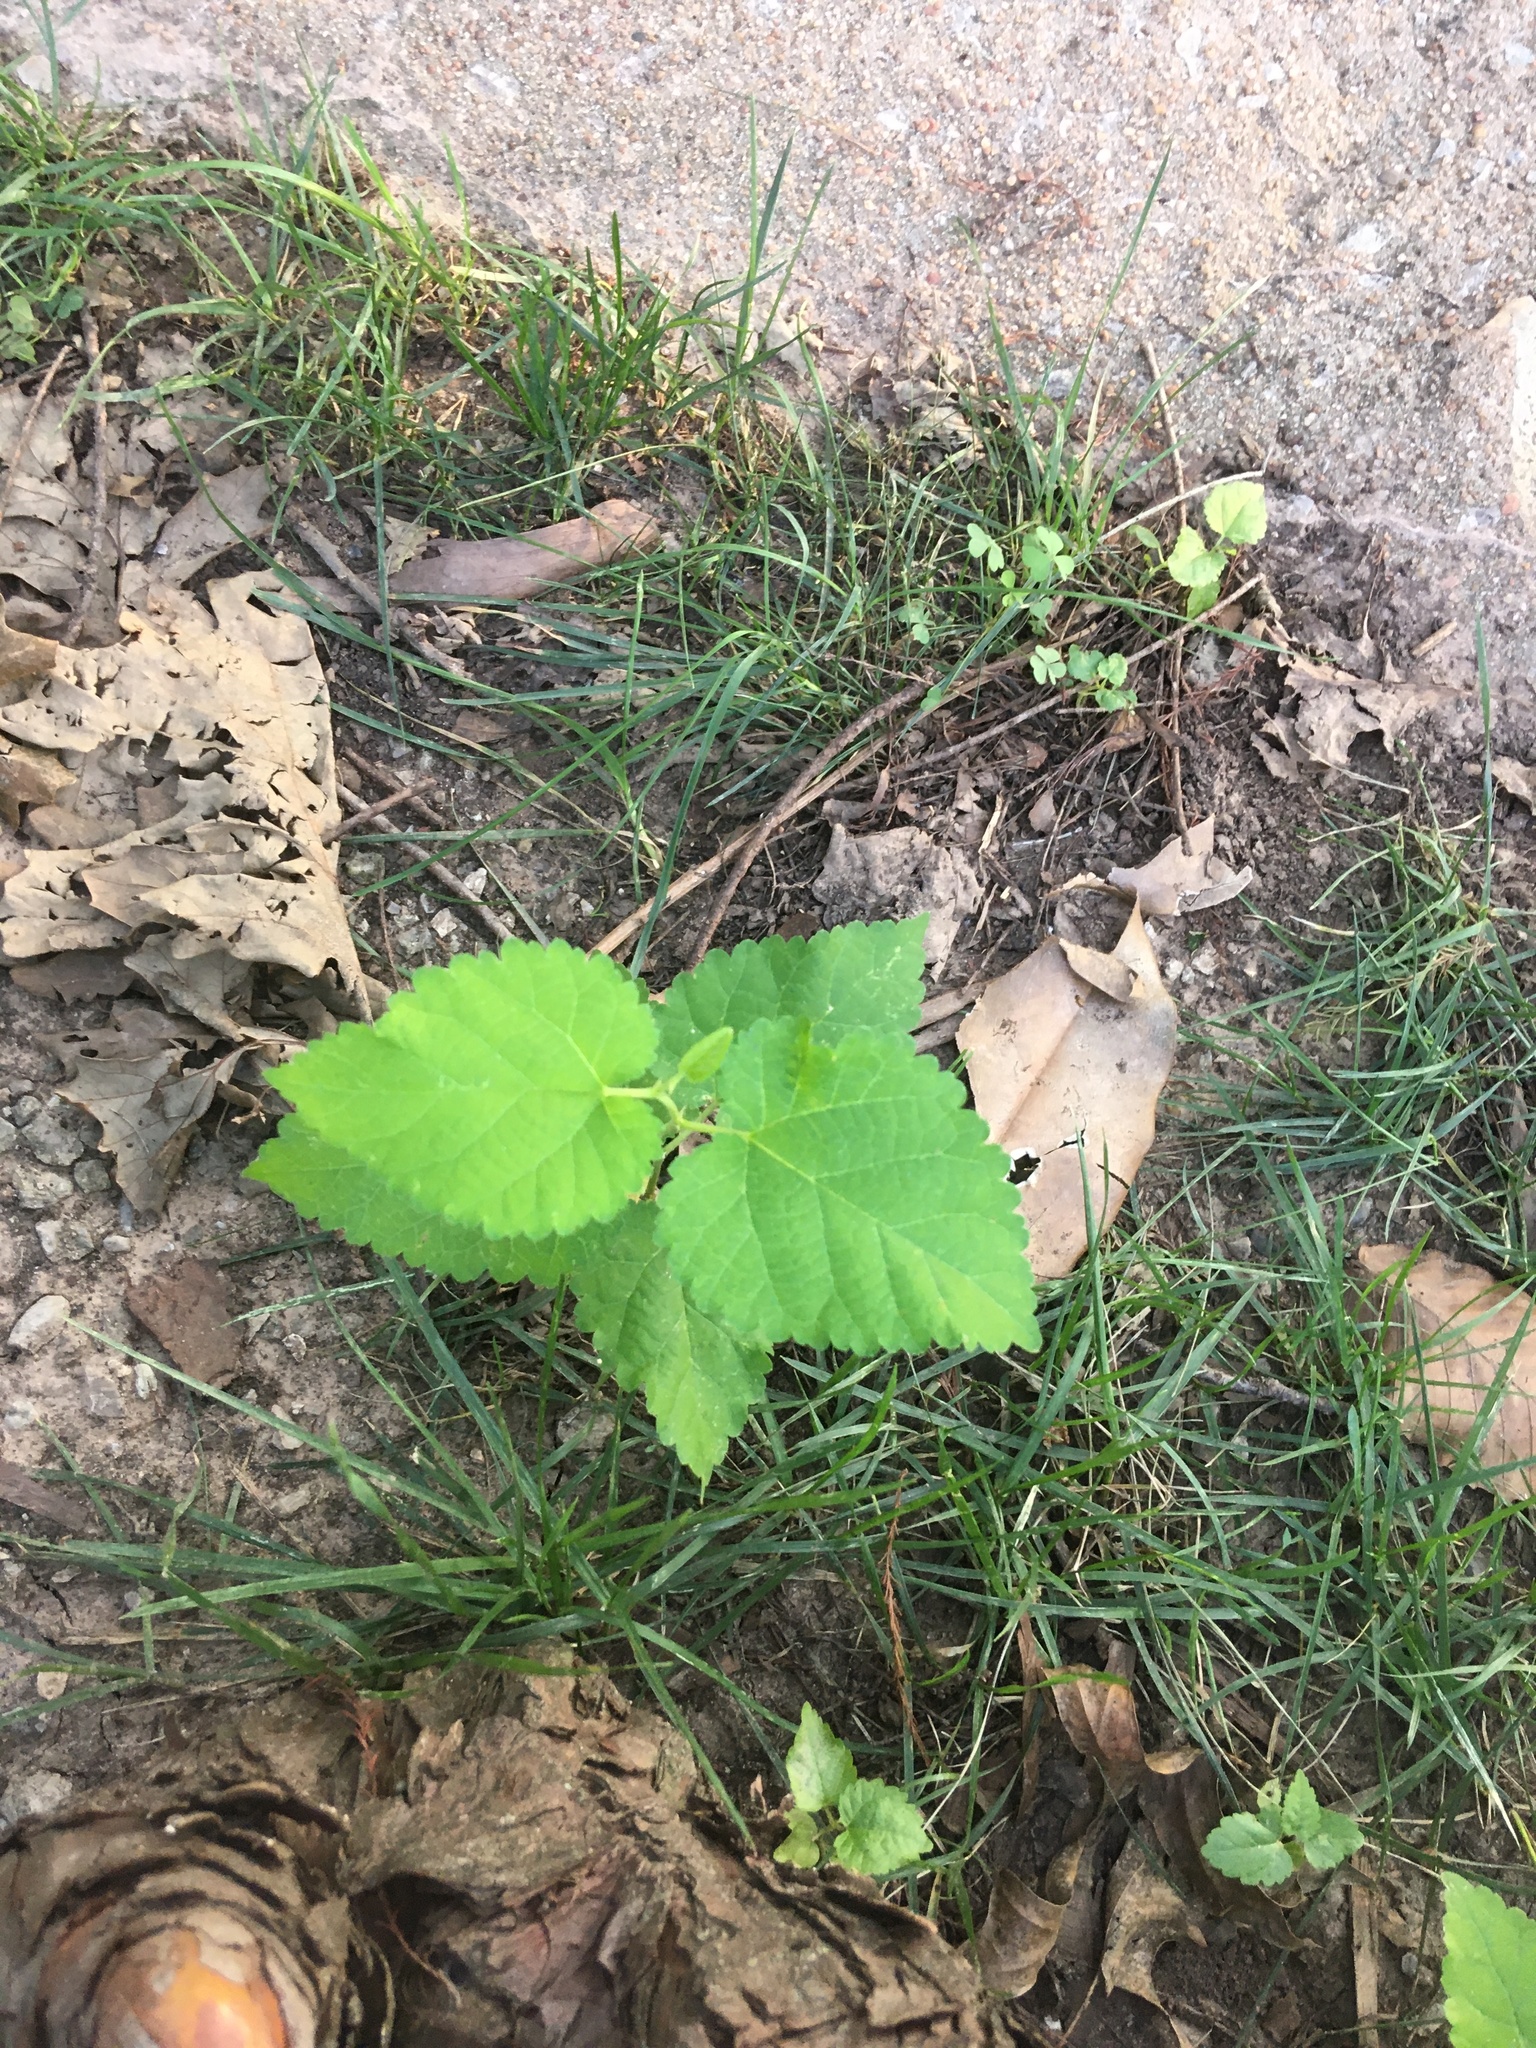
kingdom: Plantae
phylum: Tracheophyta
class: Magnoliopsida
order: Rosales
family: Moraceae
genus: Morus
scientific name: Morus alba
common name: White mulberry
